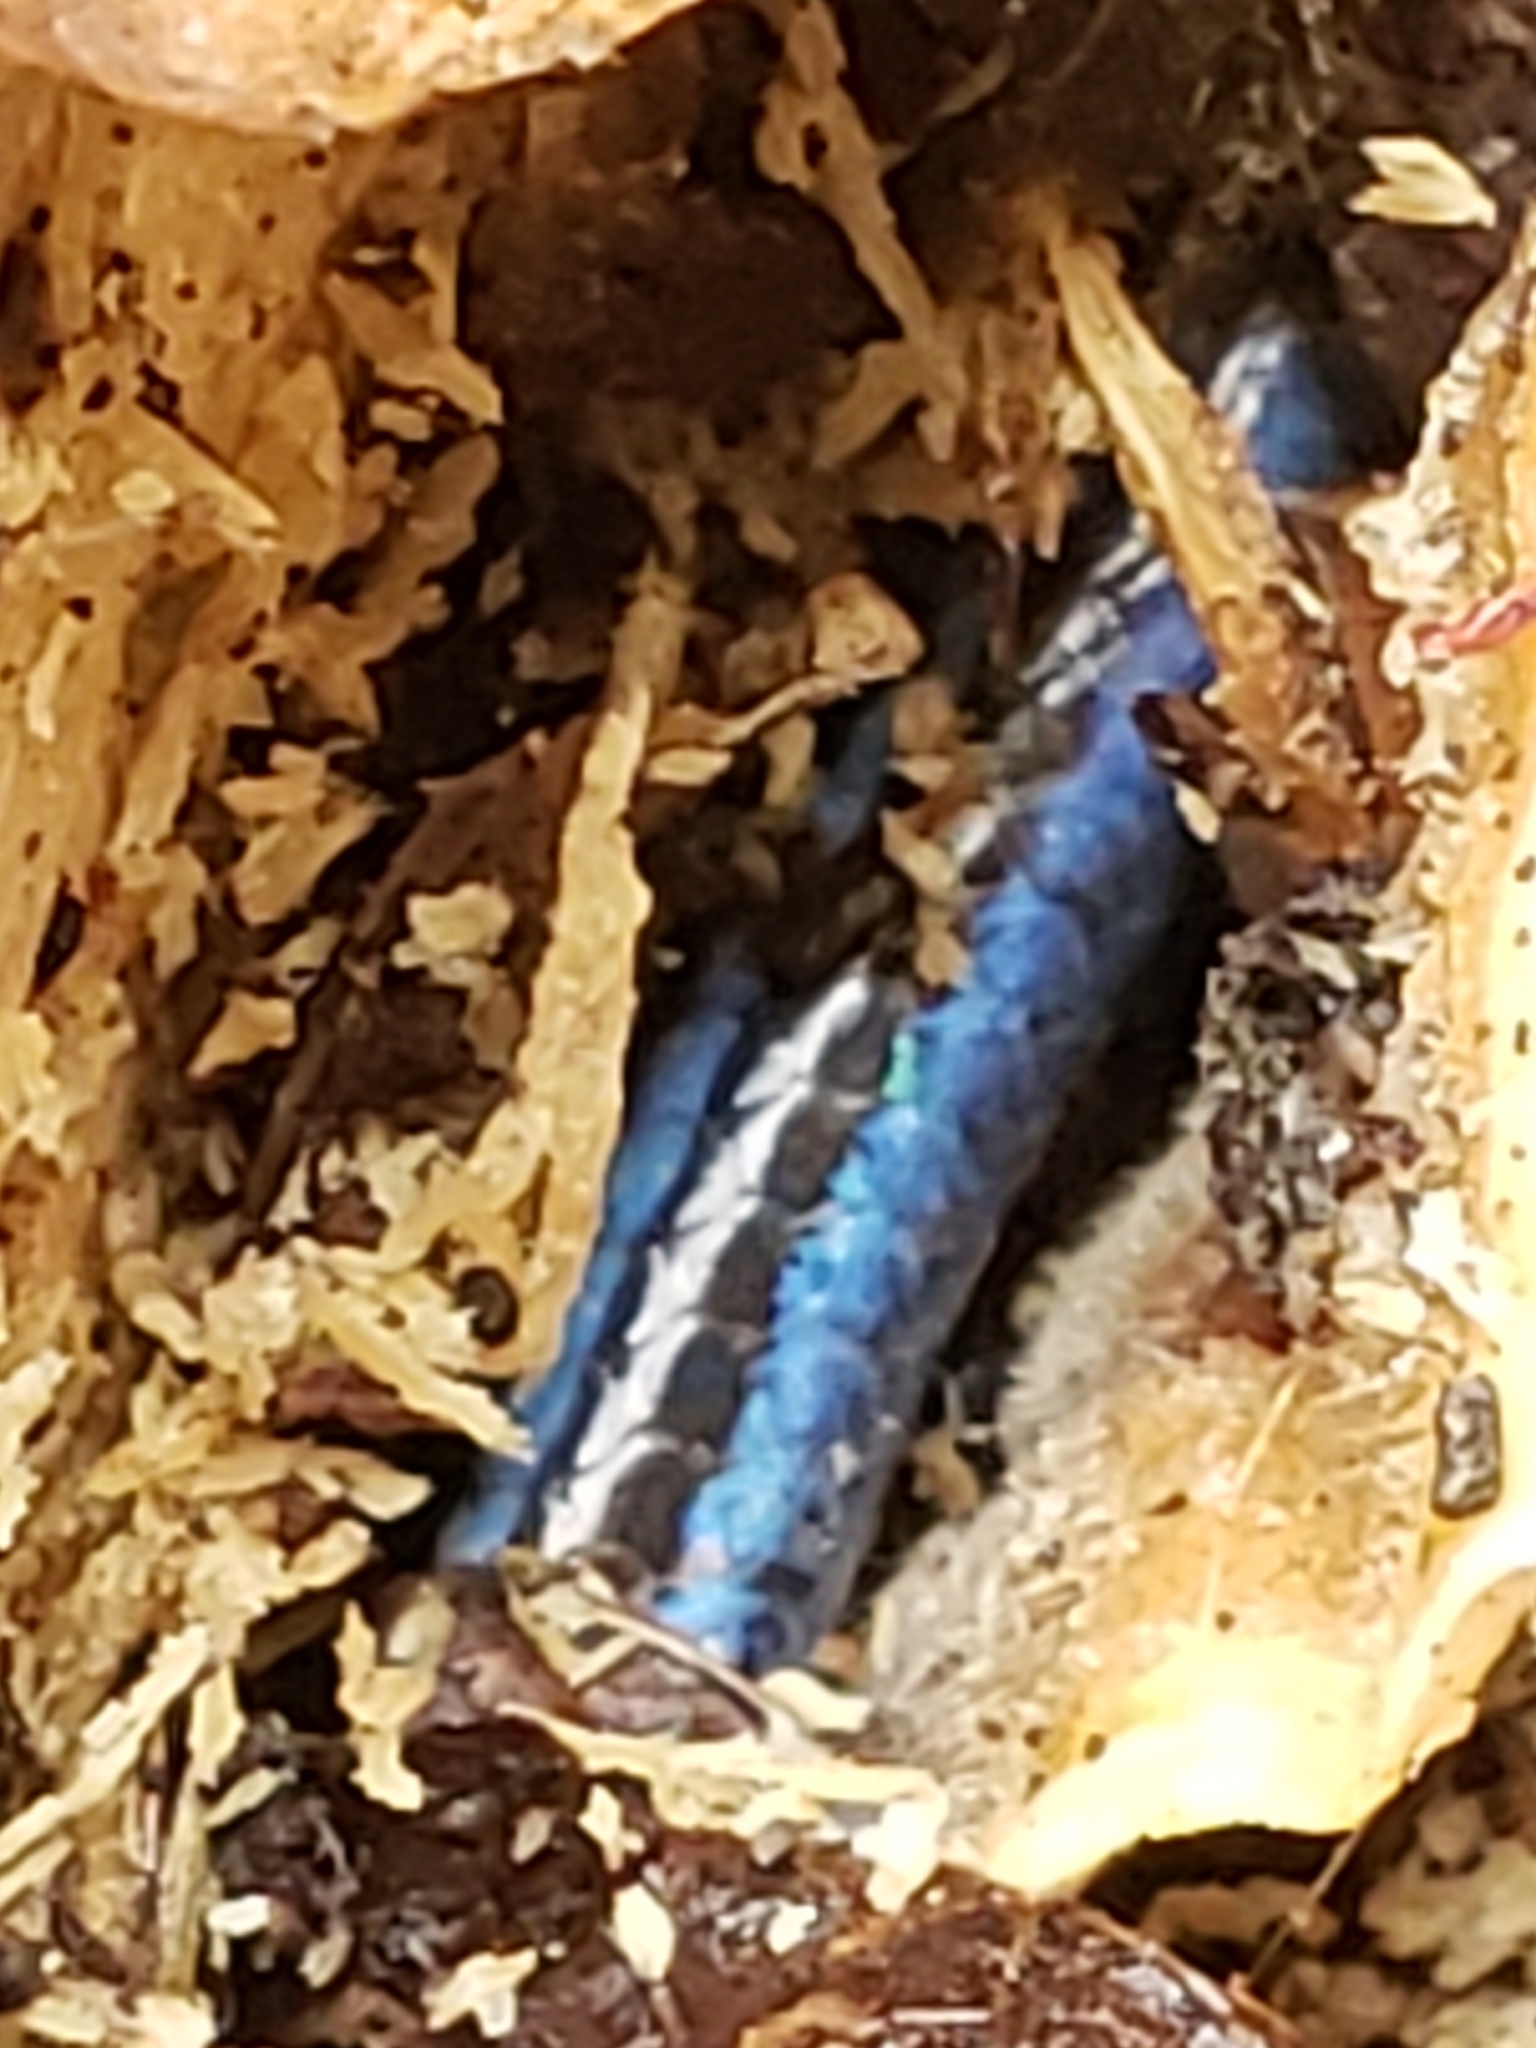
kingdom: Animalia
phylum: Chordata
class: Squamata
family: Scincidae
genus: Plestiodon
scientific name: Plestiodon fasciatus
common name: Five-lined skink
